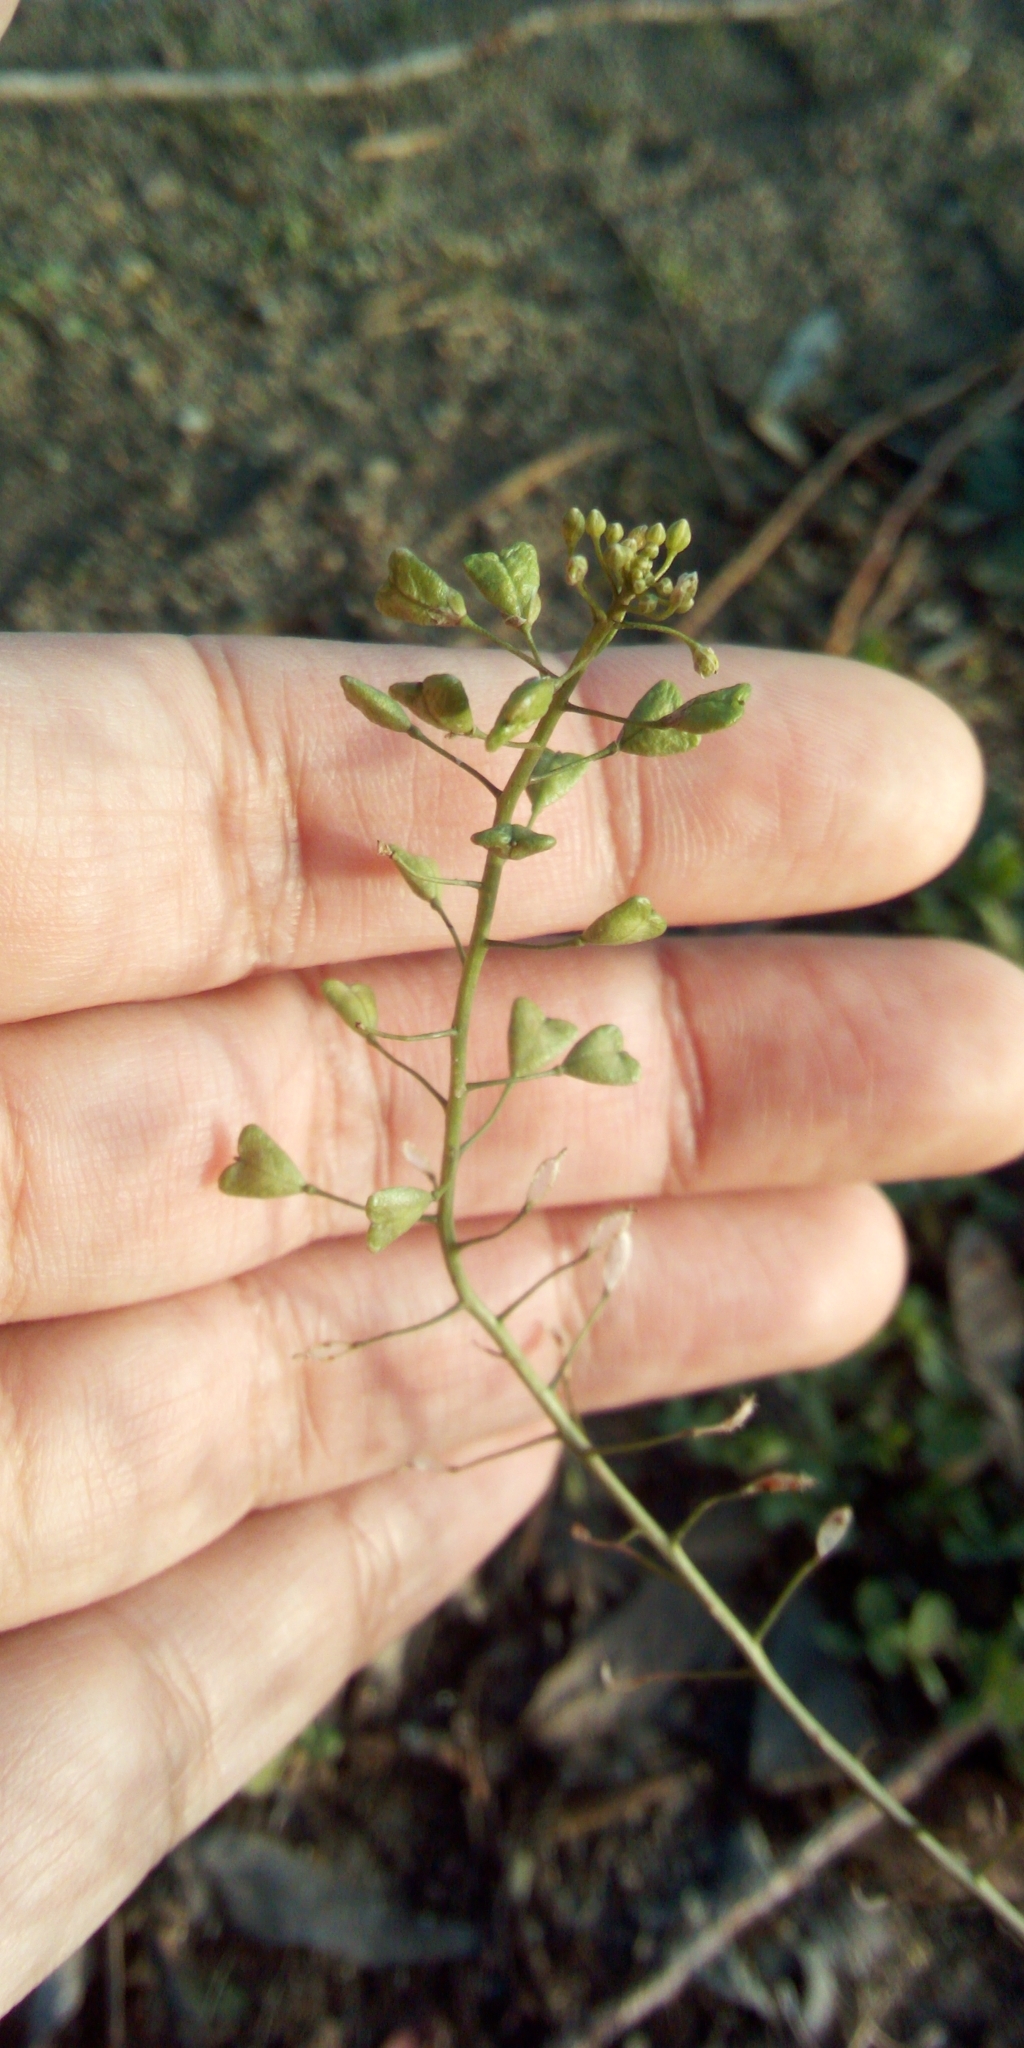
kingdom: Plantae
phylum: Tracheophyta
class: Magnoliopsida
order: Brassicales
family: Brassicaceae
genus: Capsella
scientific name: Capsella bursa-pastoris
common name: Shepherd's purse
